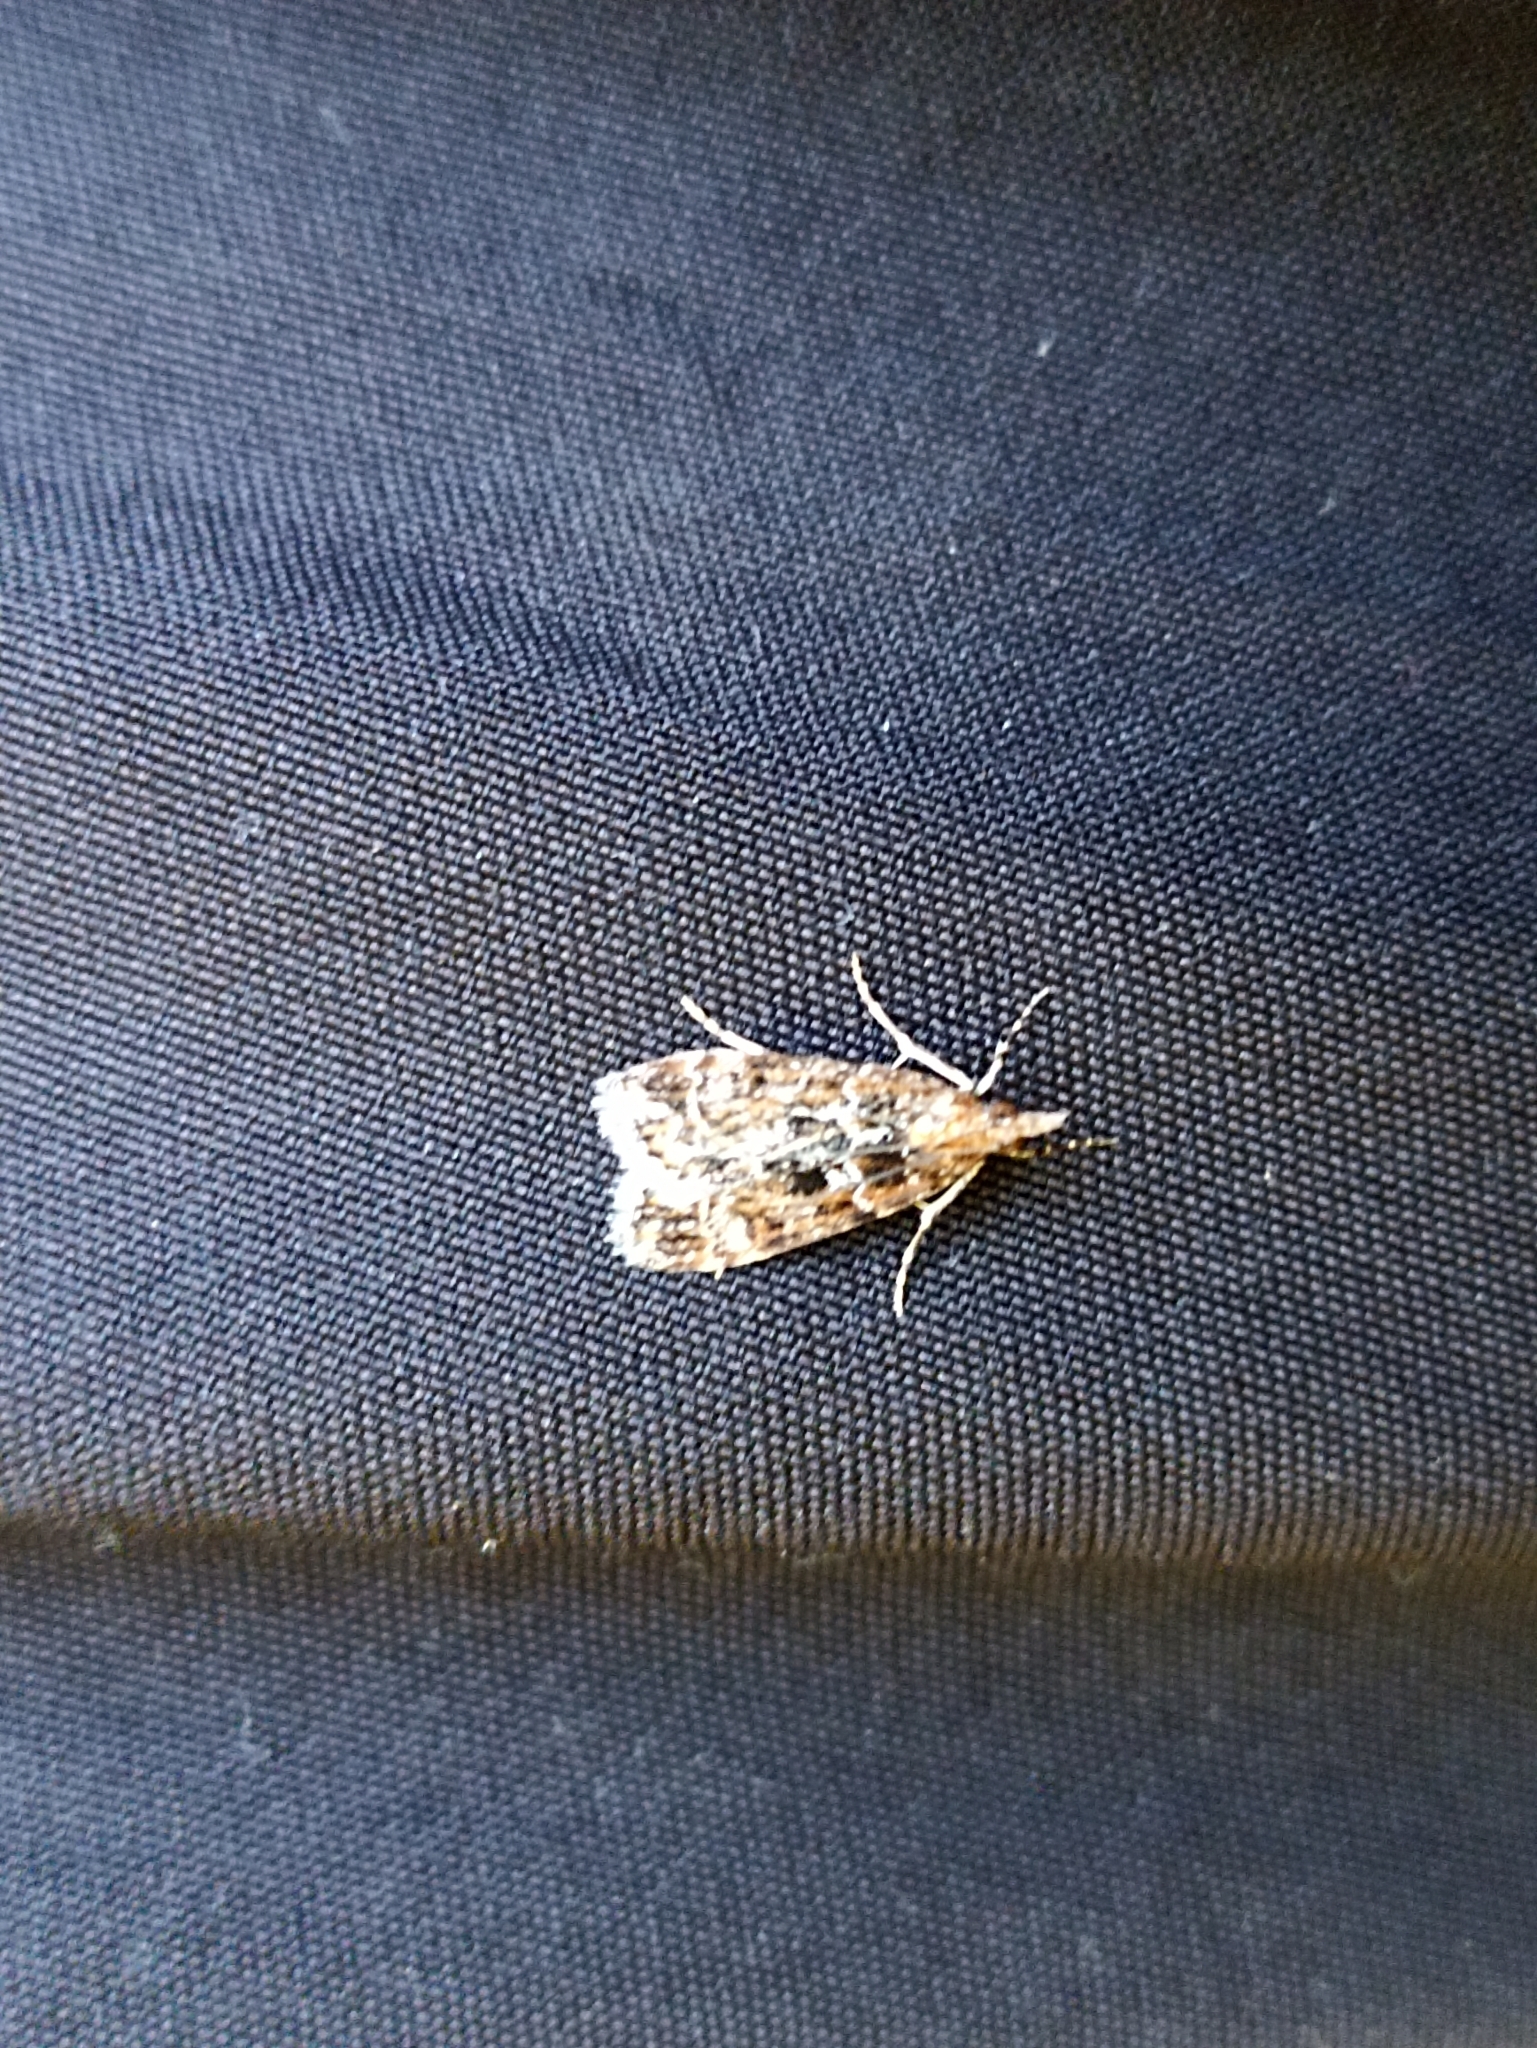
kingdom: Animalia
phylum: Arthropoda
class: Insecta
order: Lepidoptera
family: Crambidae
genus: Scoparia
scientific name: Scoparia animosa
